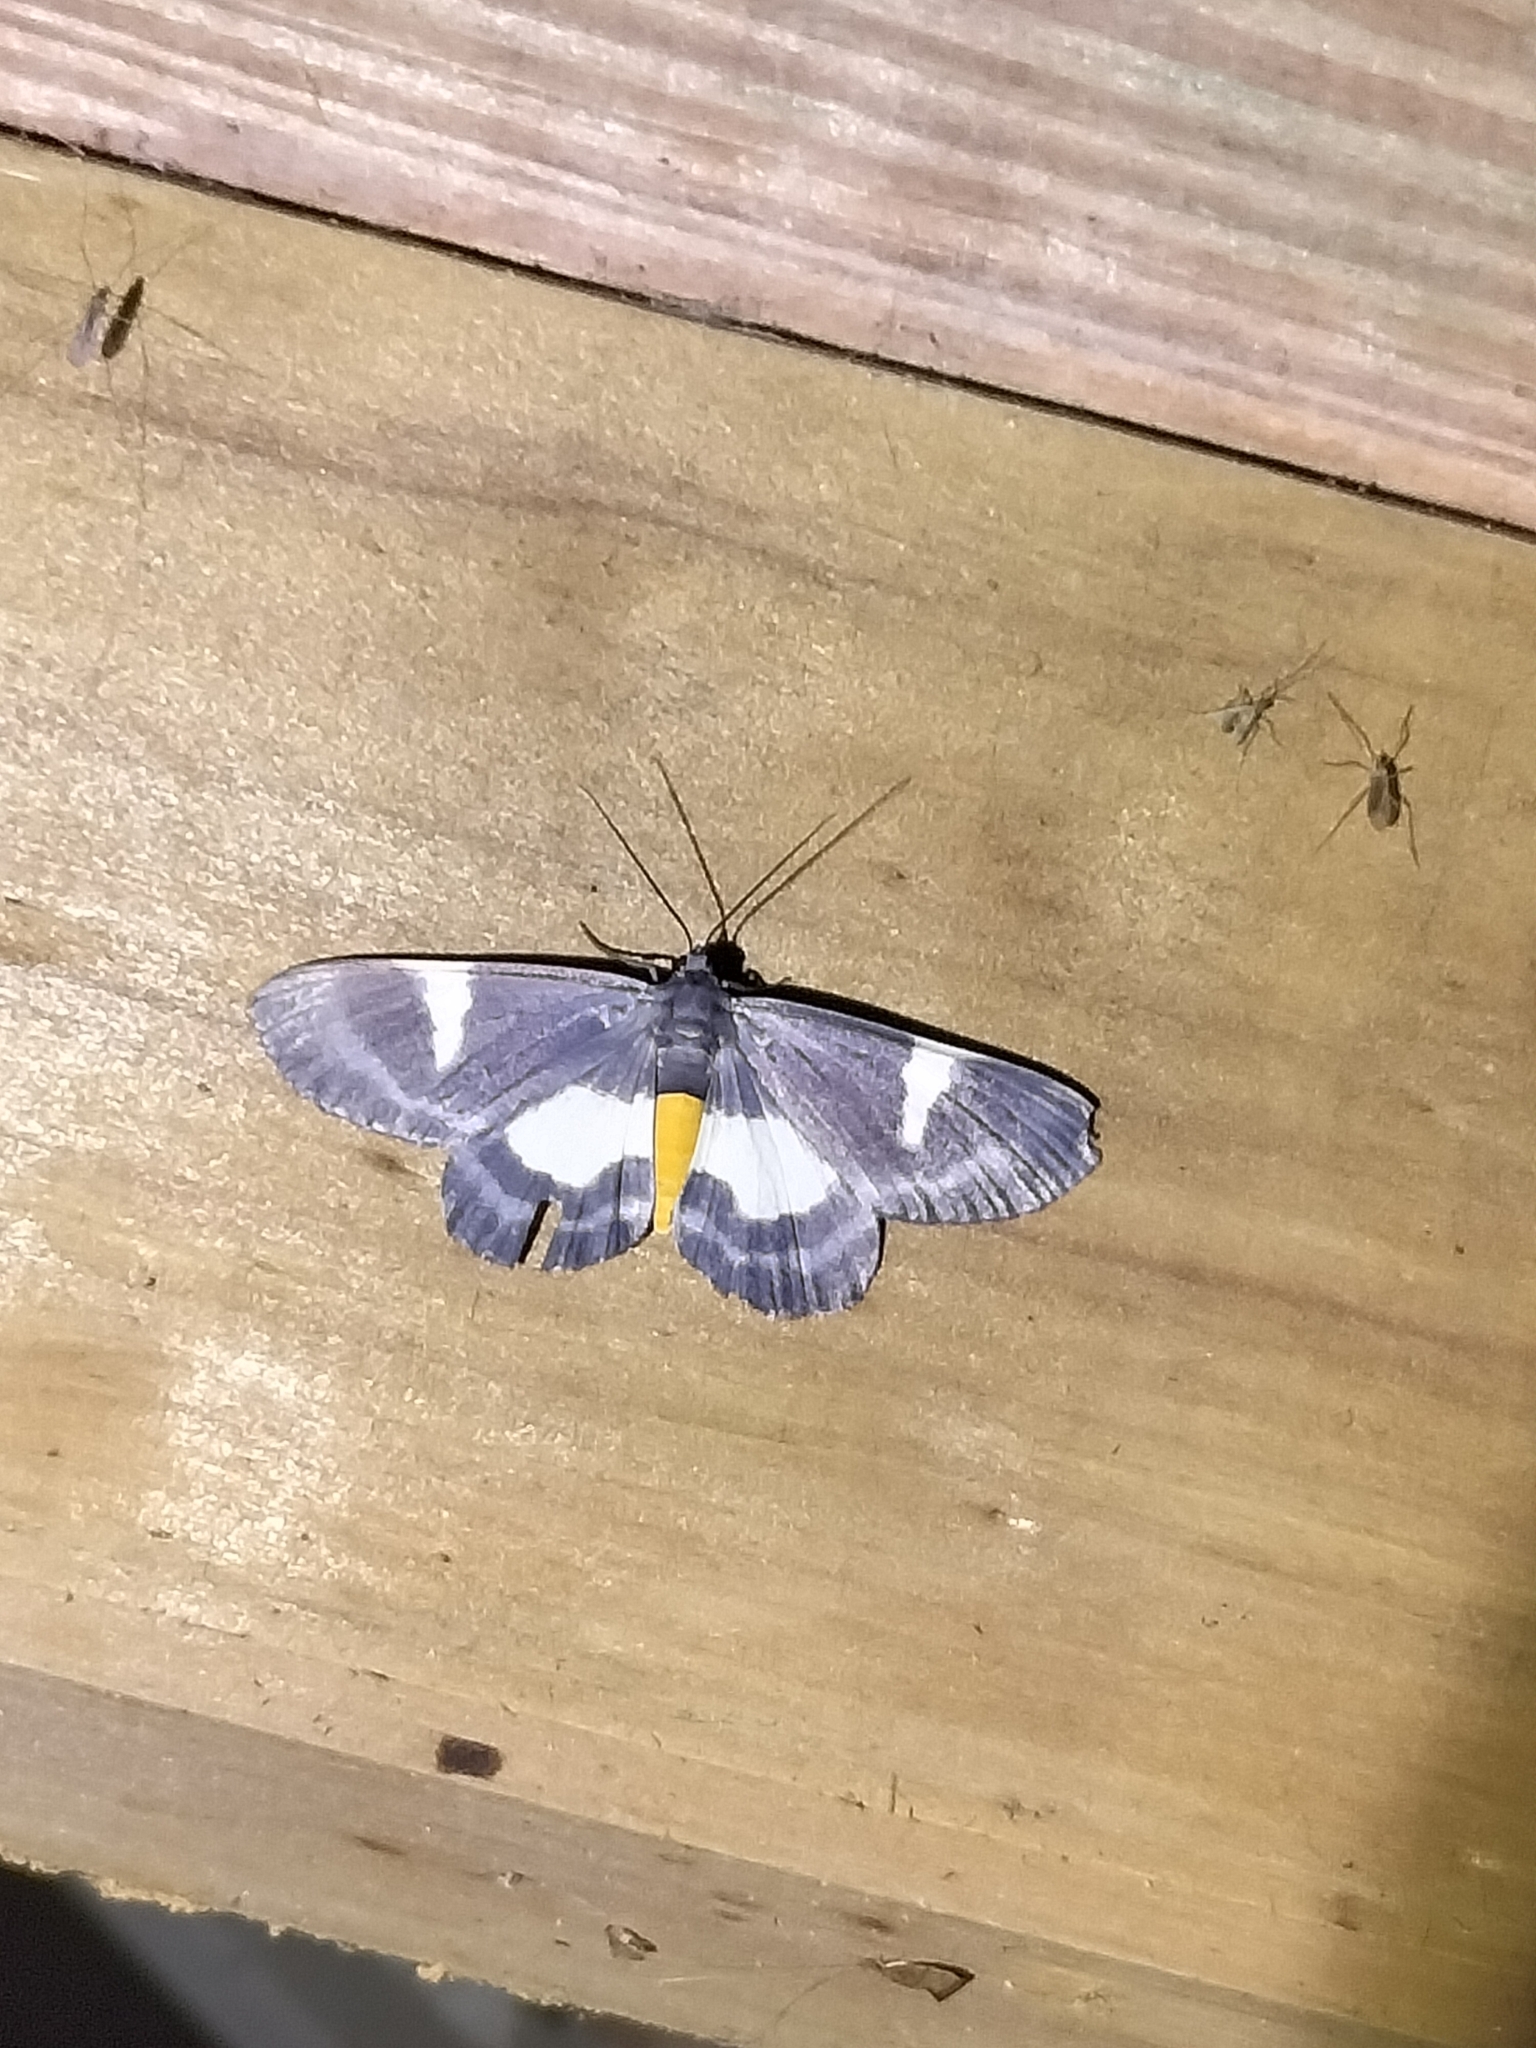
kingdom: Animalia
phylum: Arthropoda
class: Insecta
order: Lepidoptera
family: Geometridae
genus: Craspedosis
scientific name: Craspedosis leucosticta
